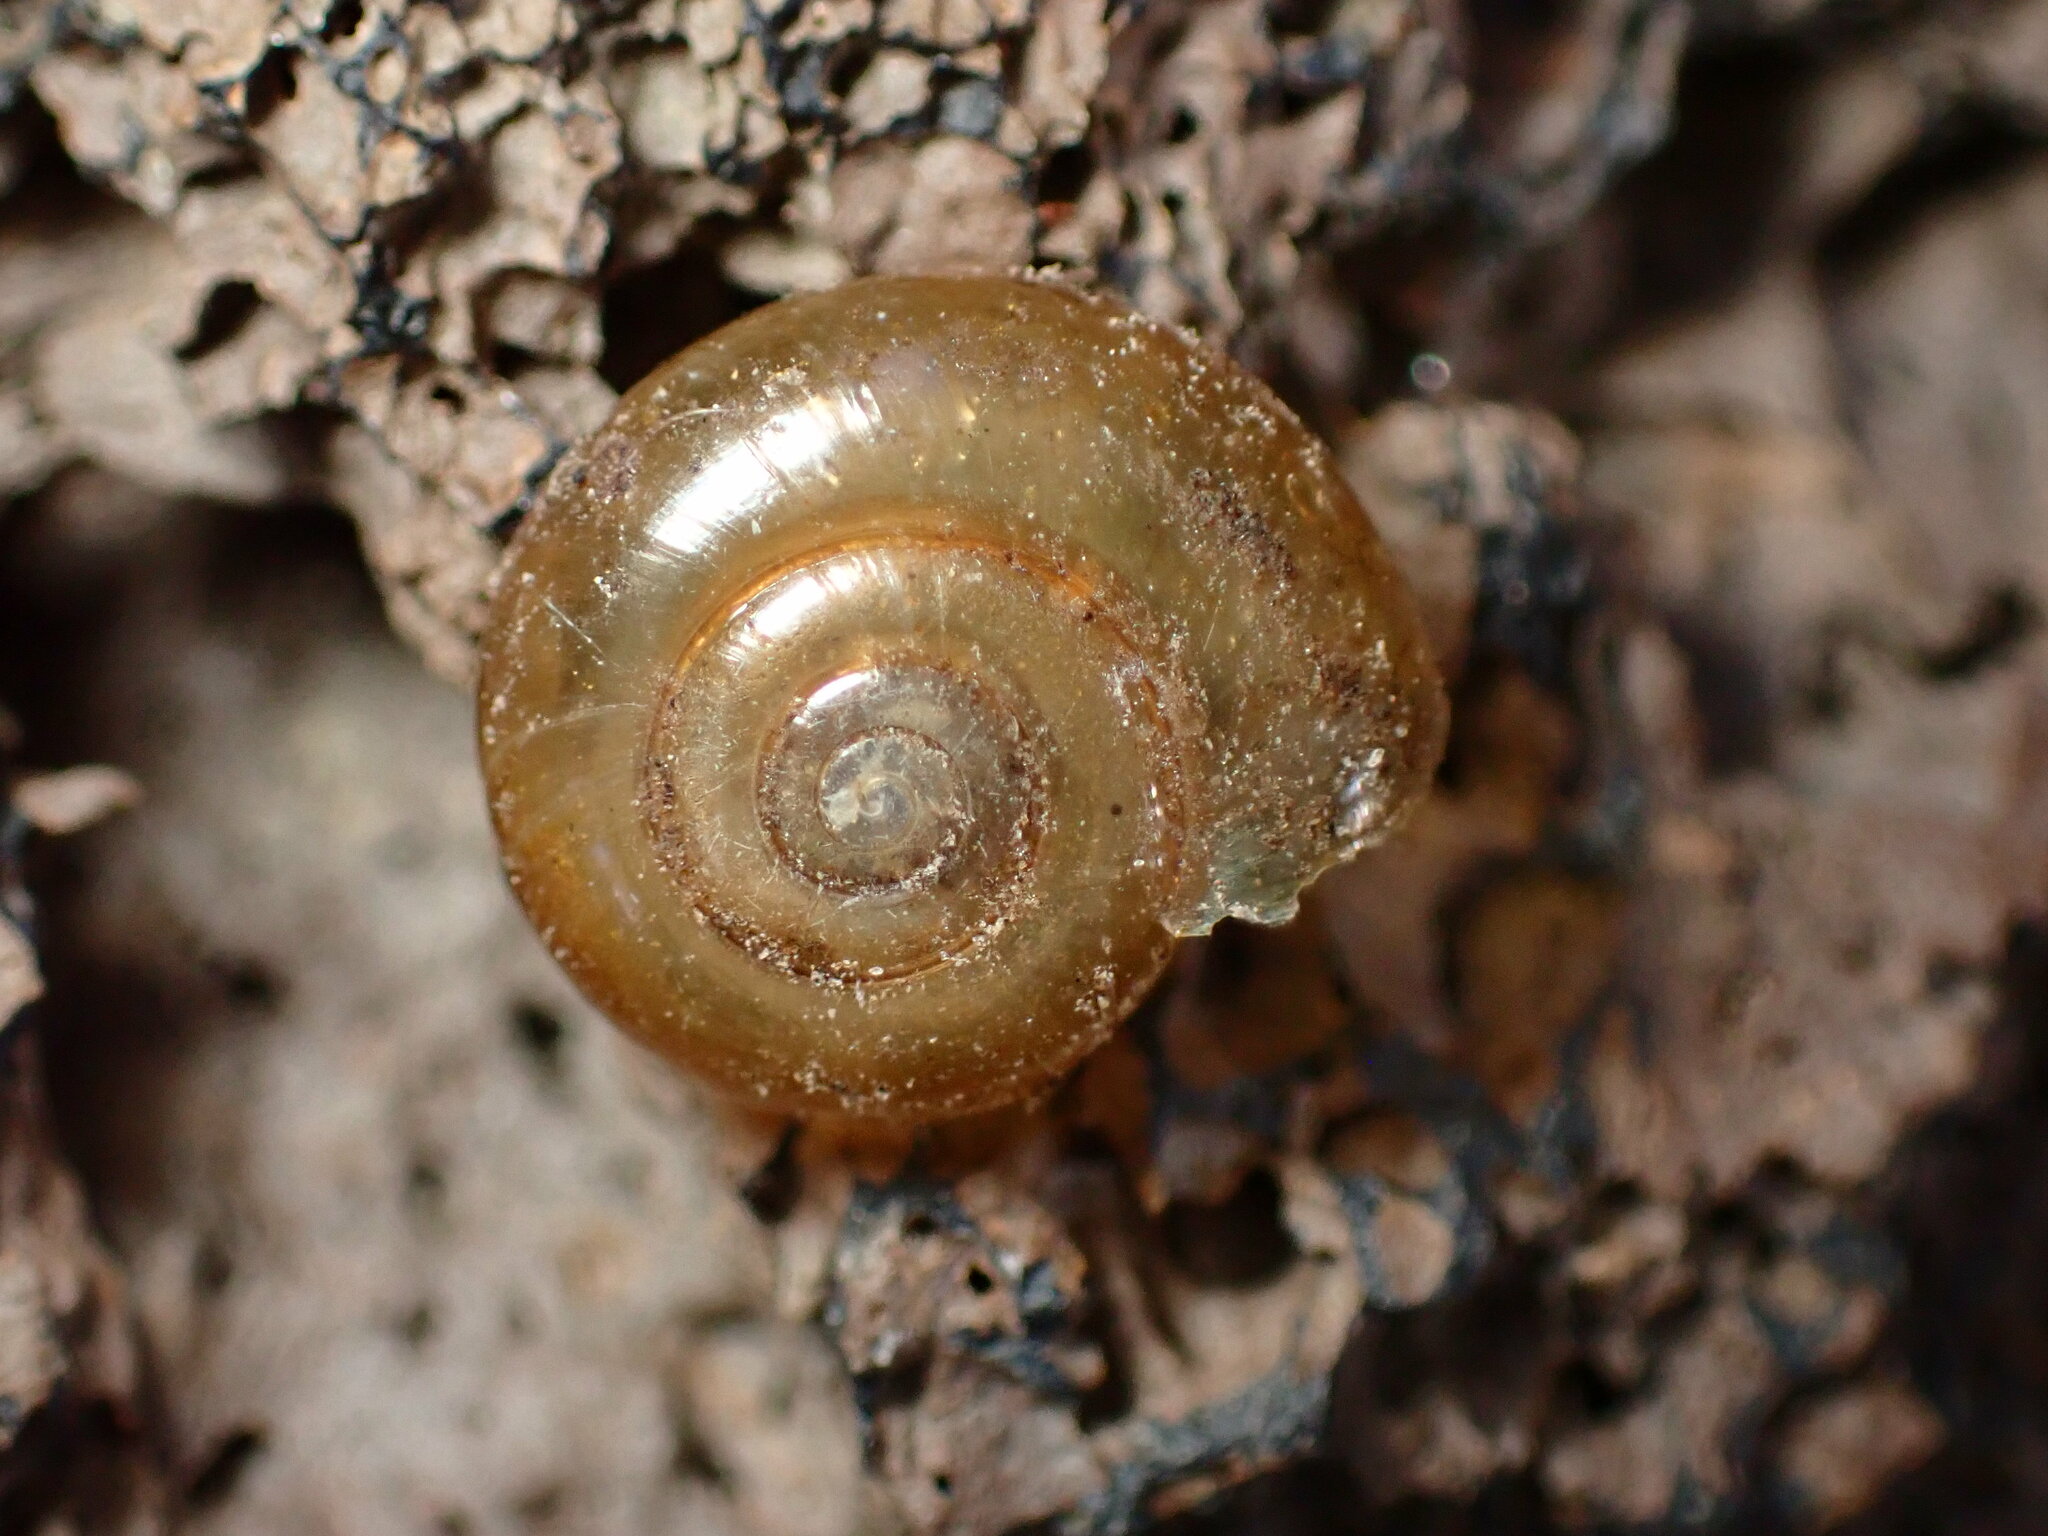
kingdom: Animalia
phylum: Mollusca
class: Gastropoda
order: Stylommatophora
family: Oxychilidae
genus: Oxychilus
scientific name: Oxychilus
